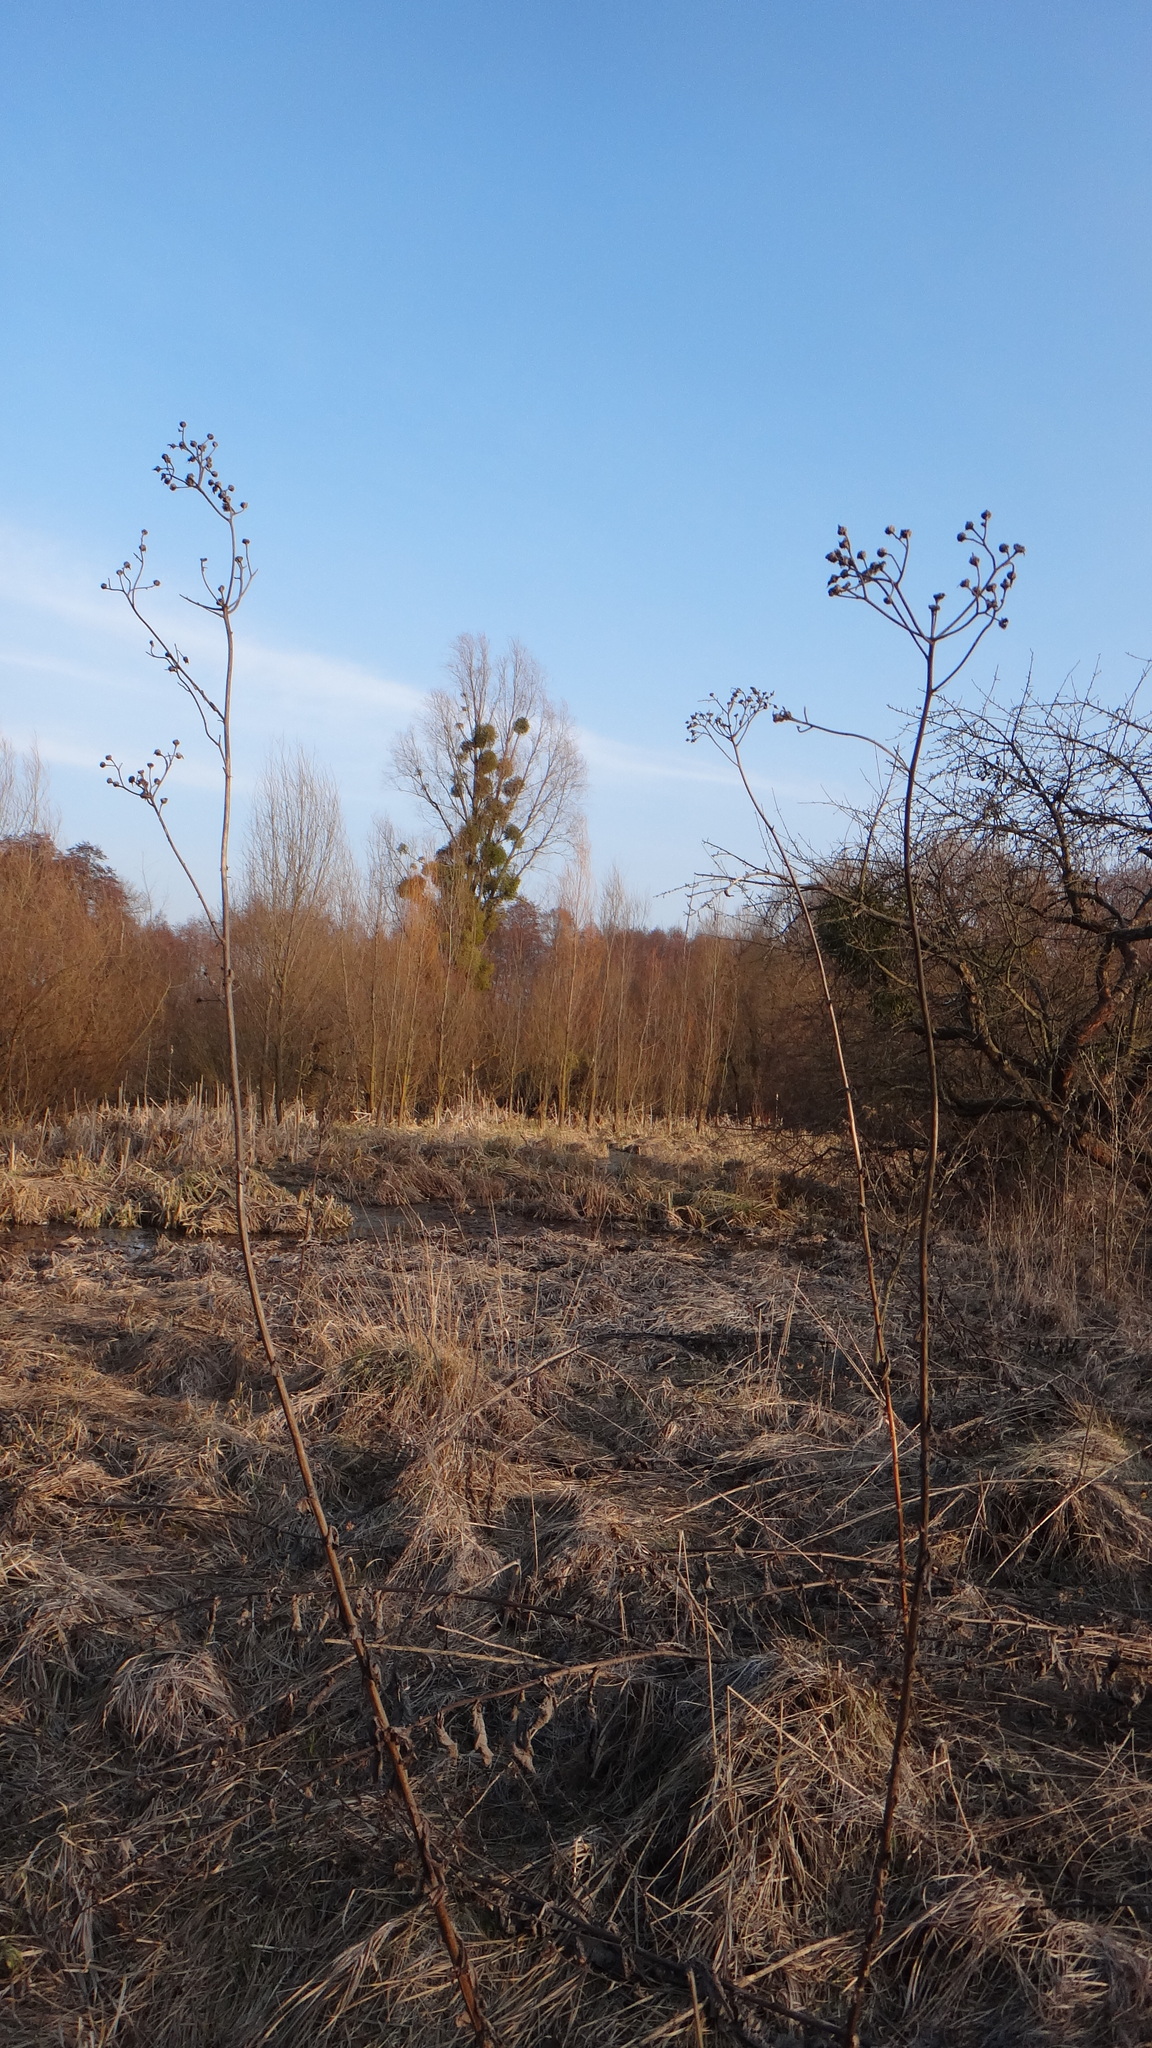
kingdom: Plantae
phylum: Tracheophyta
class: Magnoliopsida
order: Asterales
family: Asteraceae
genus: Sonchus
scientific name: Sonchus palustris
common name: Marsh sow-thistle
